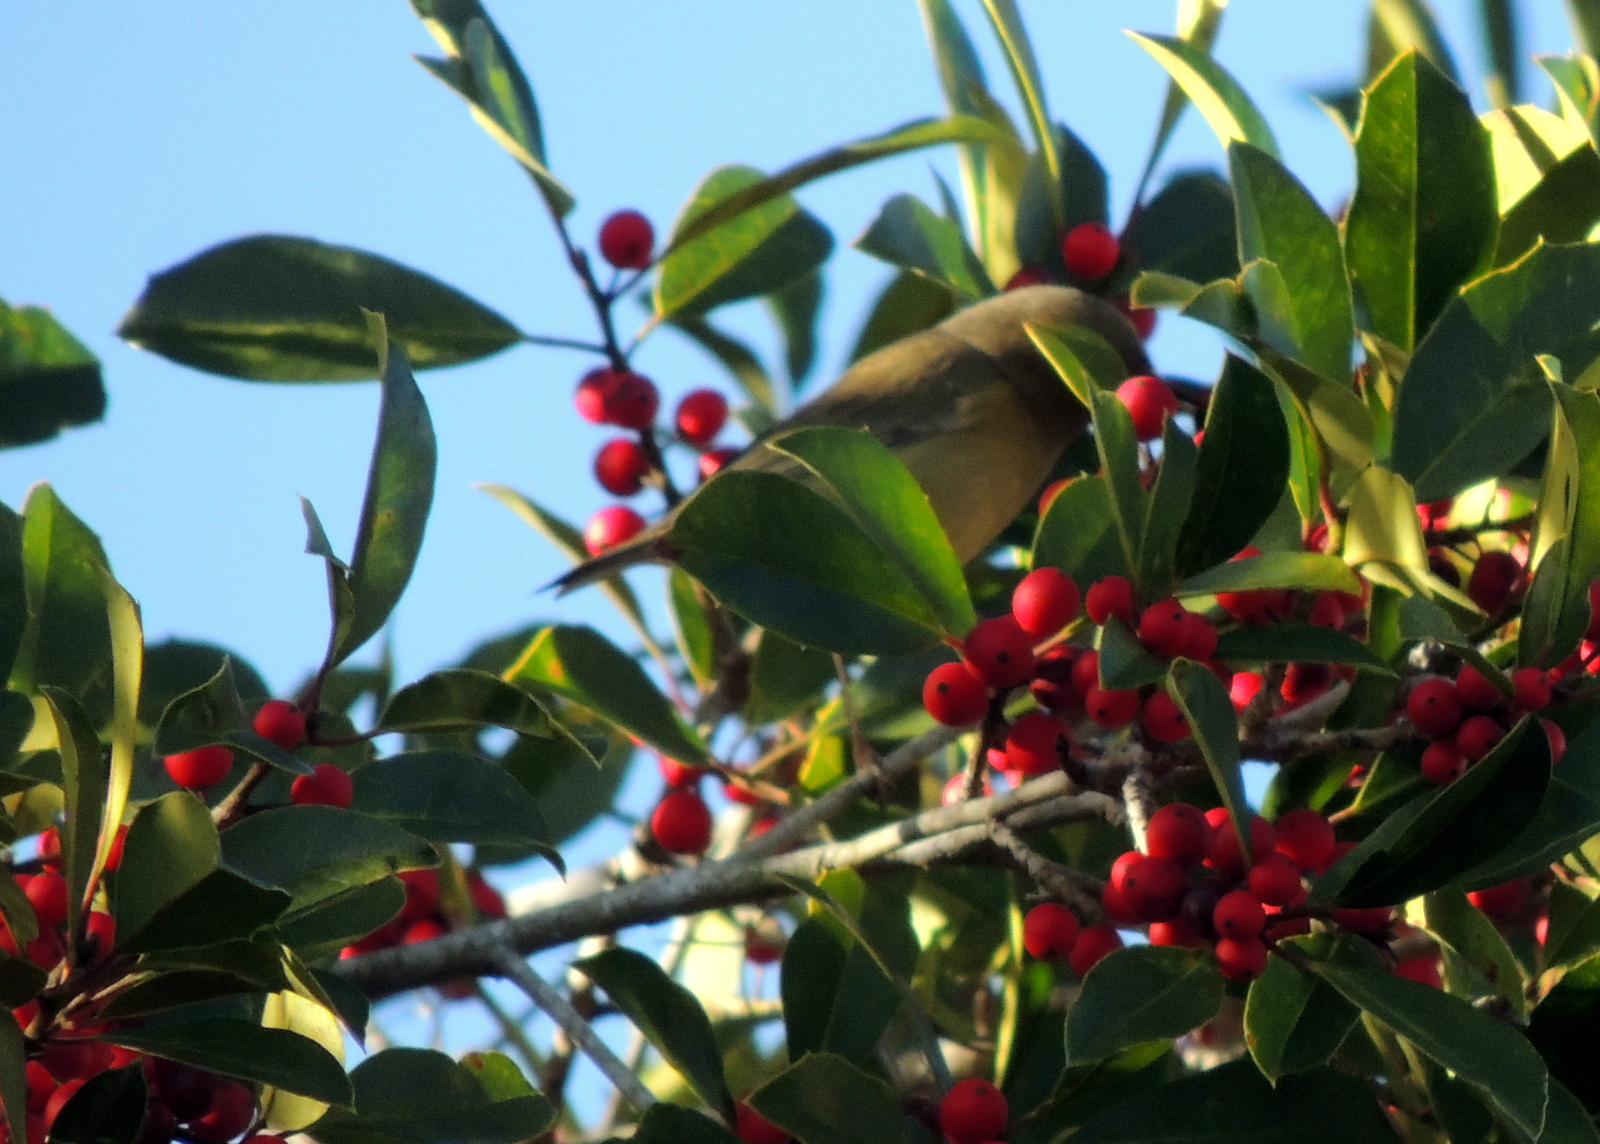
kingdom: Animalia
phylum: Chordata
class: Aves
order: Passeriformes
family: Parulidae
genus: Leiothlypis
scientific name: Leiothlypis celata
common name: Orange-crowned warbler
